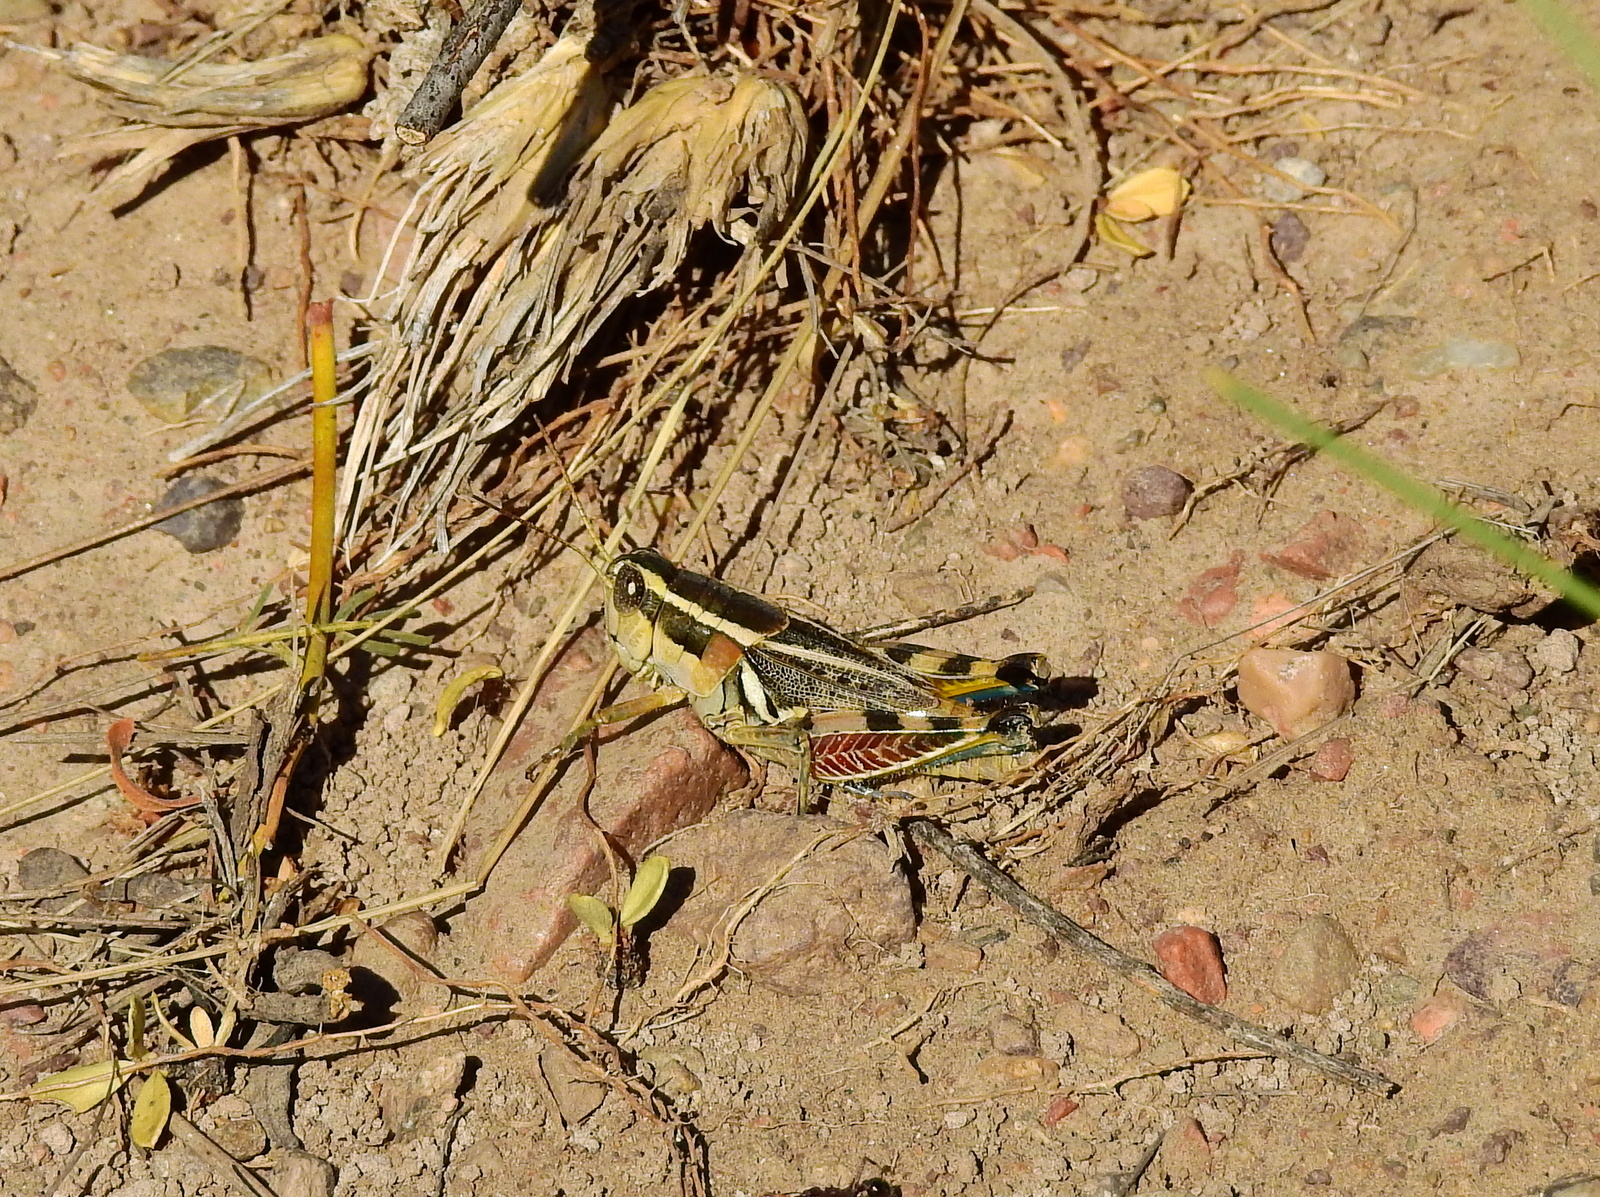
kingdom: Animalia
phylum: Arthropoda
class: Insecta
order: Orthoptera
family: Acrididae
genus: Dichroplus
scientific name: Dichroplus vittatus
